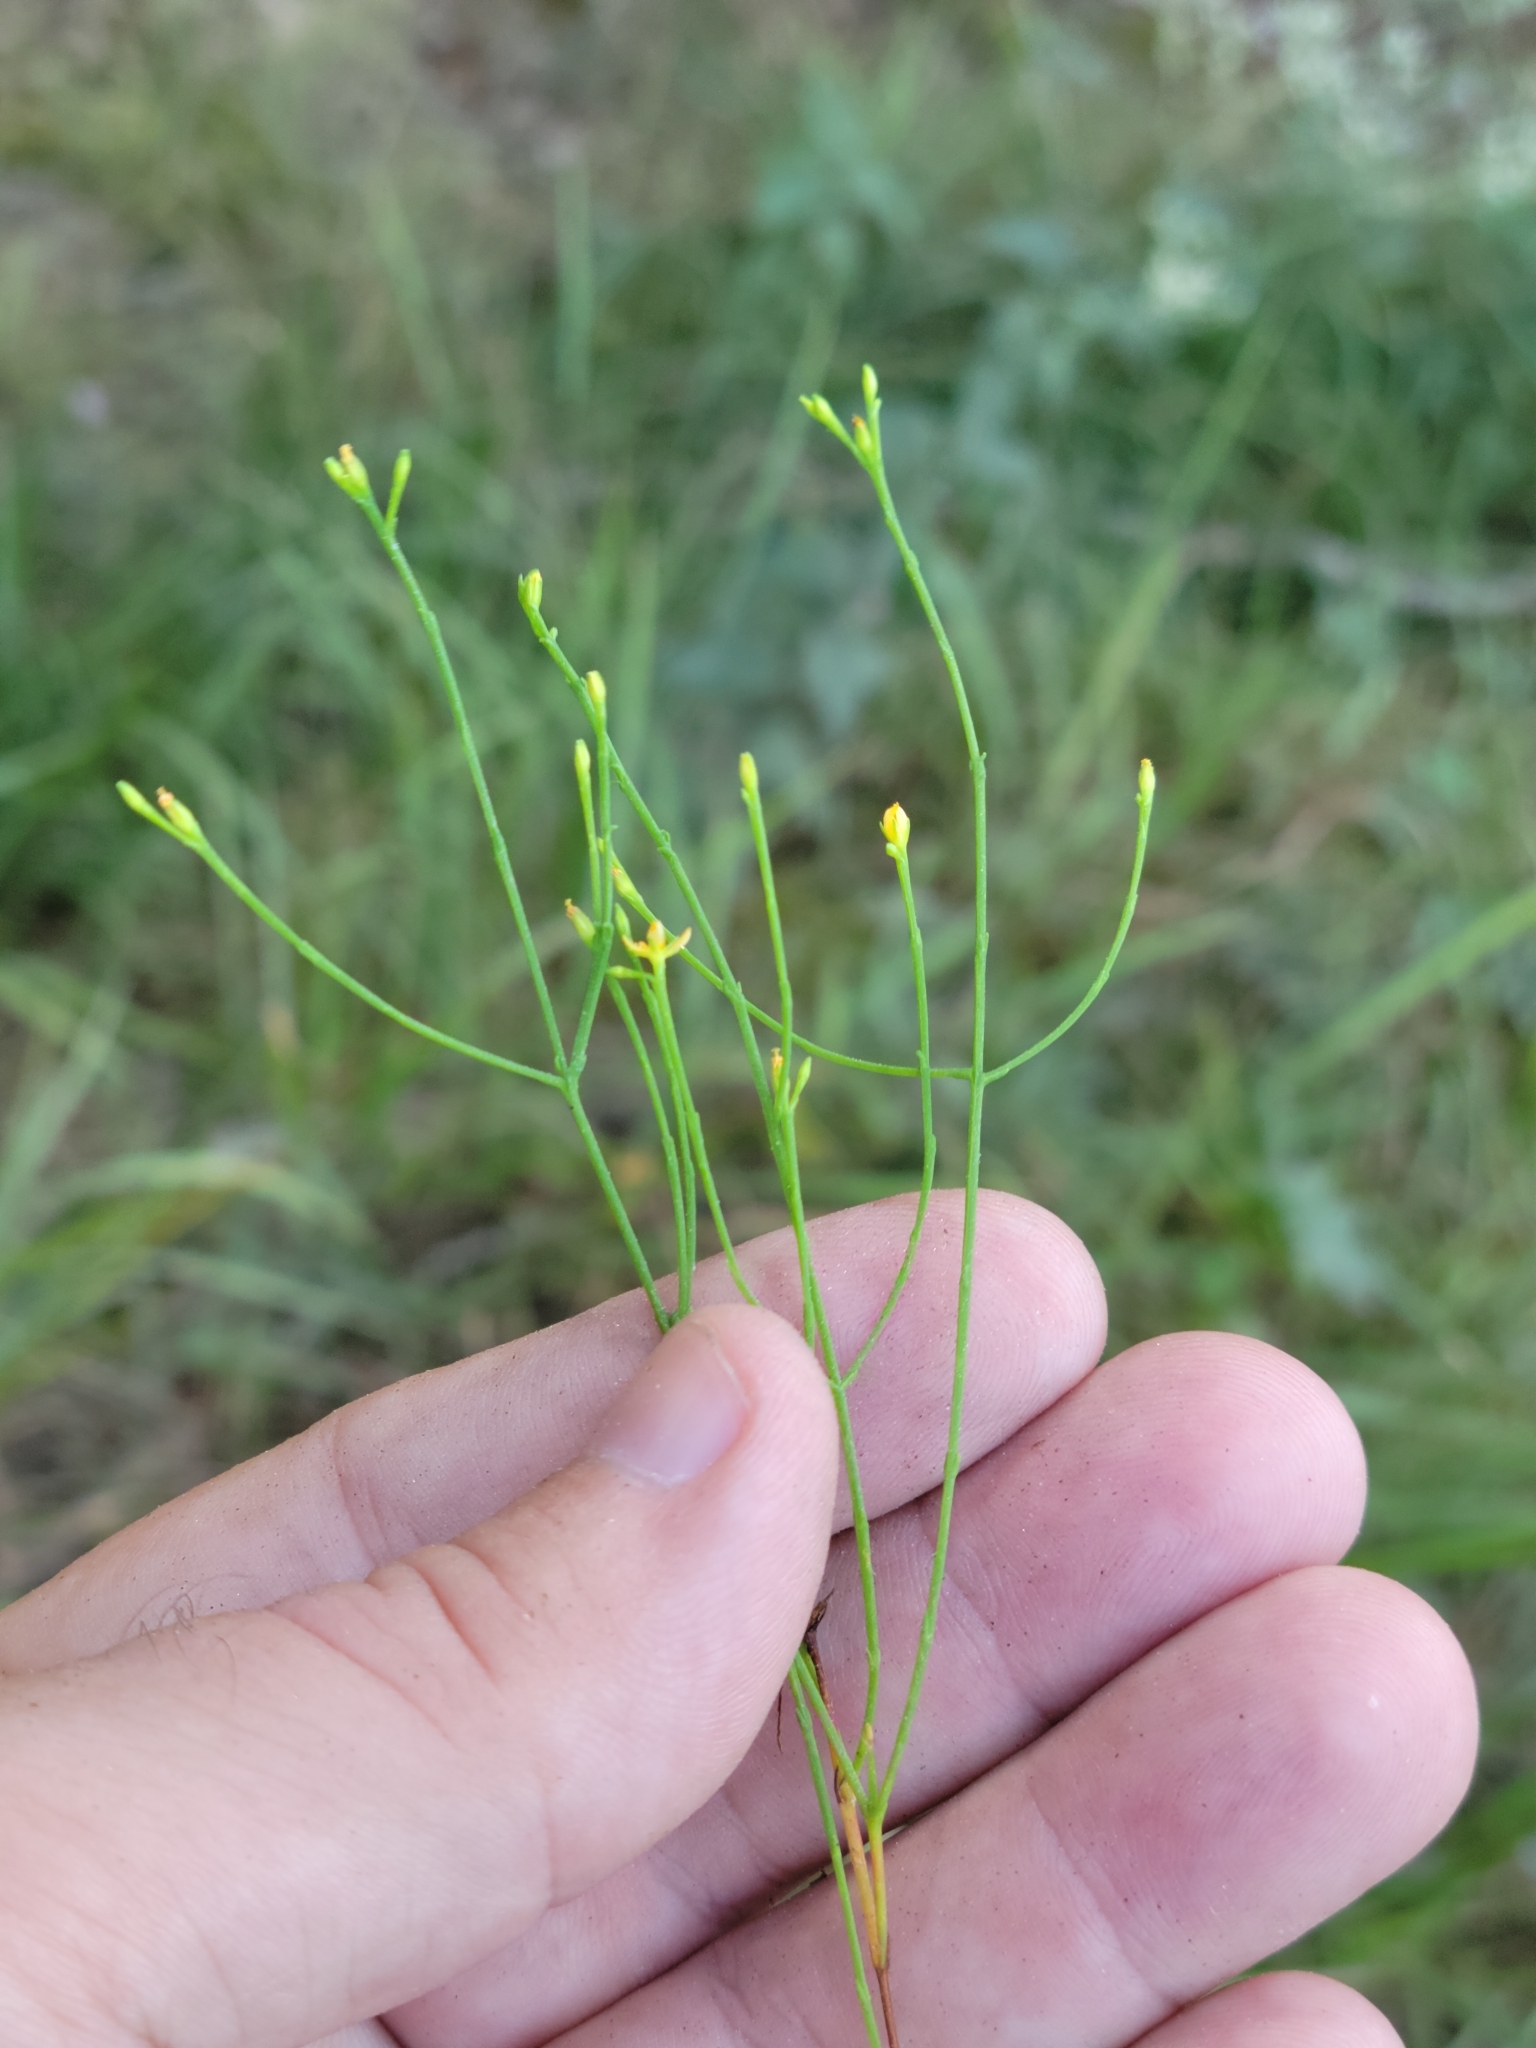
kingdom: Plantae
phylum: Tracheophyta
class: Magnoliopsida
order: Malpighiales
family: Hypericaceae
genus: Hypericum
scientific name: Hypericum gentianoides
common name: Gentian-leaved st. john's-wort
